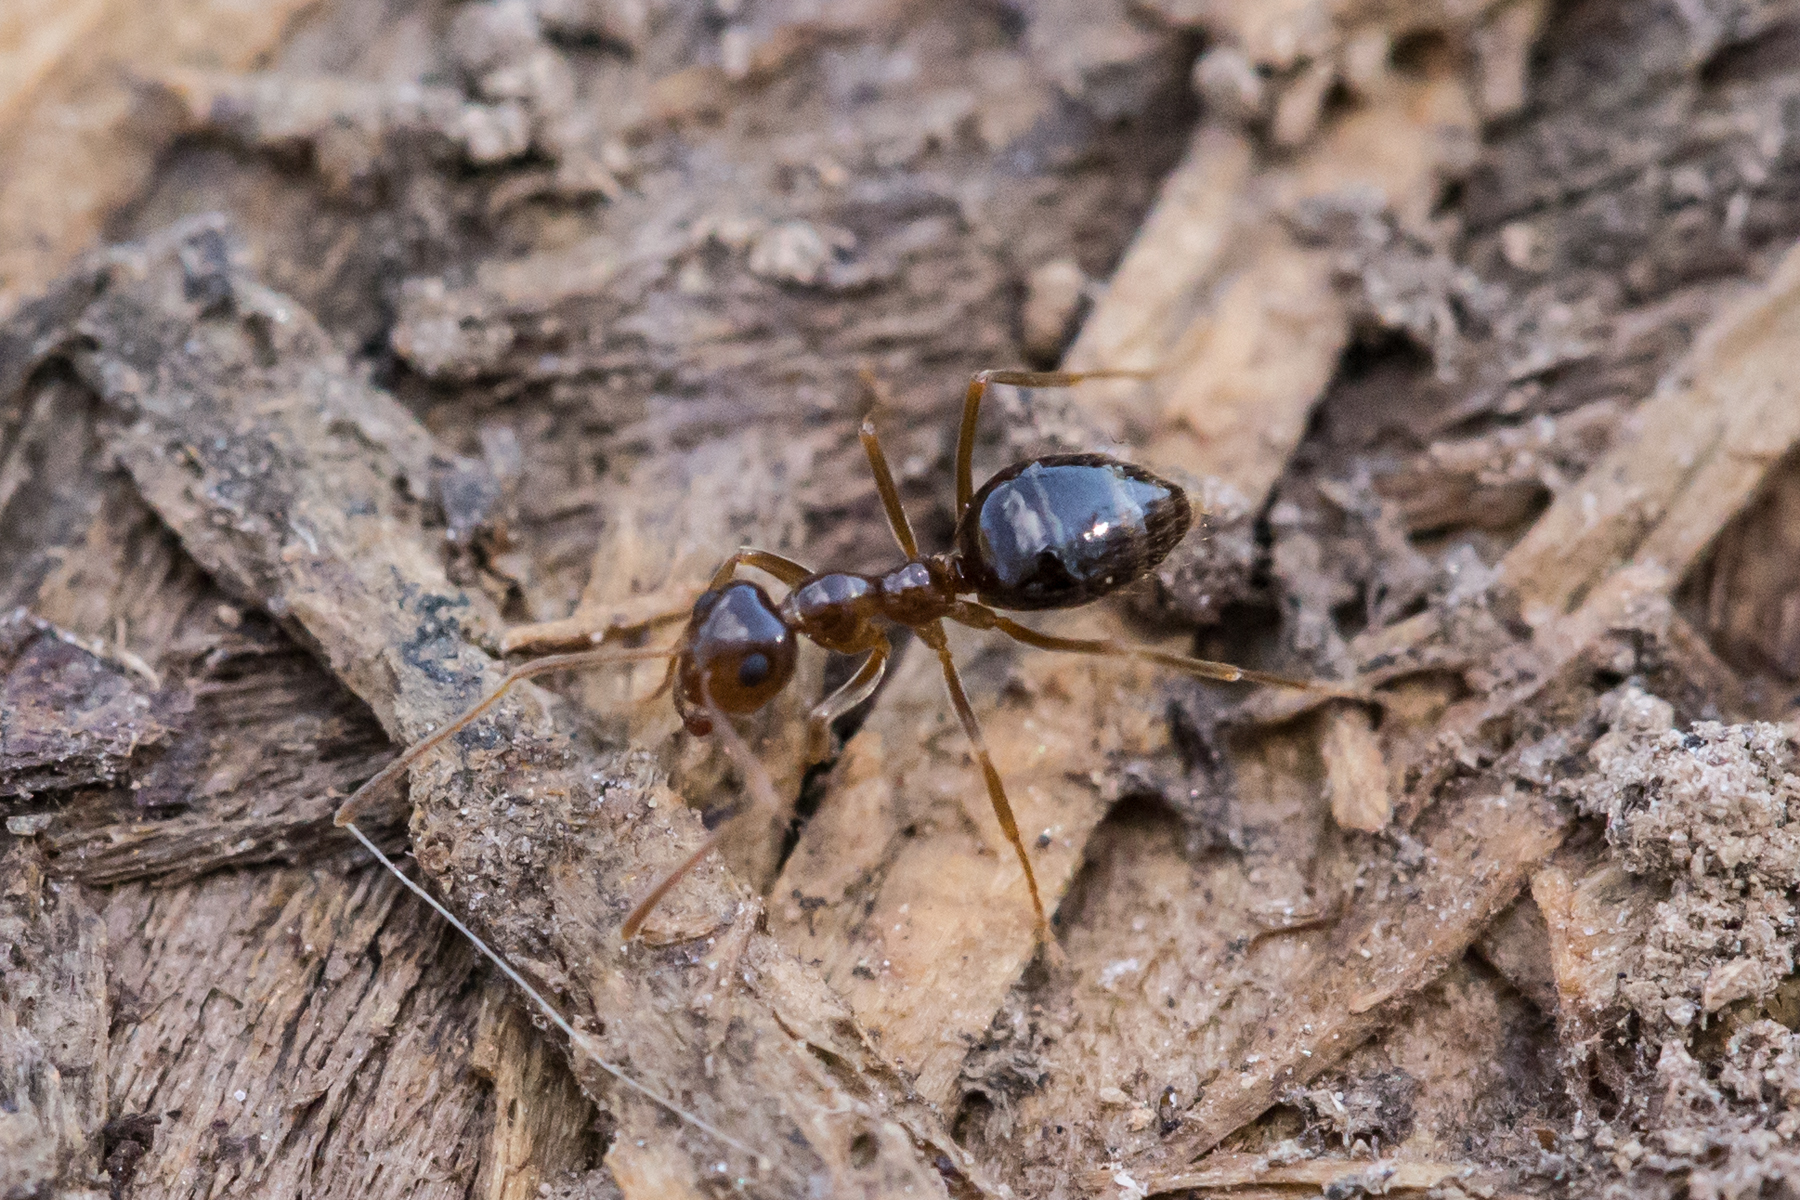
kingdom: Animalia
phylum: Arthropoda
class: Insecta
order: Hymenoptera
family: Formicidae
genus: Prenolepis
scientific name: Prenolepis imparis
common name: Small honey ant
